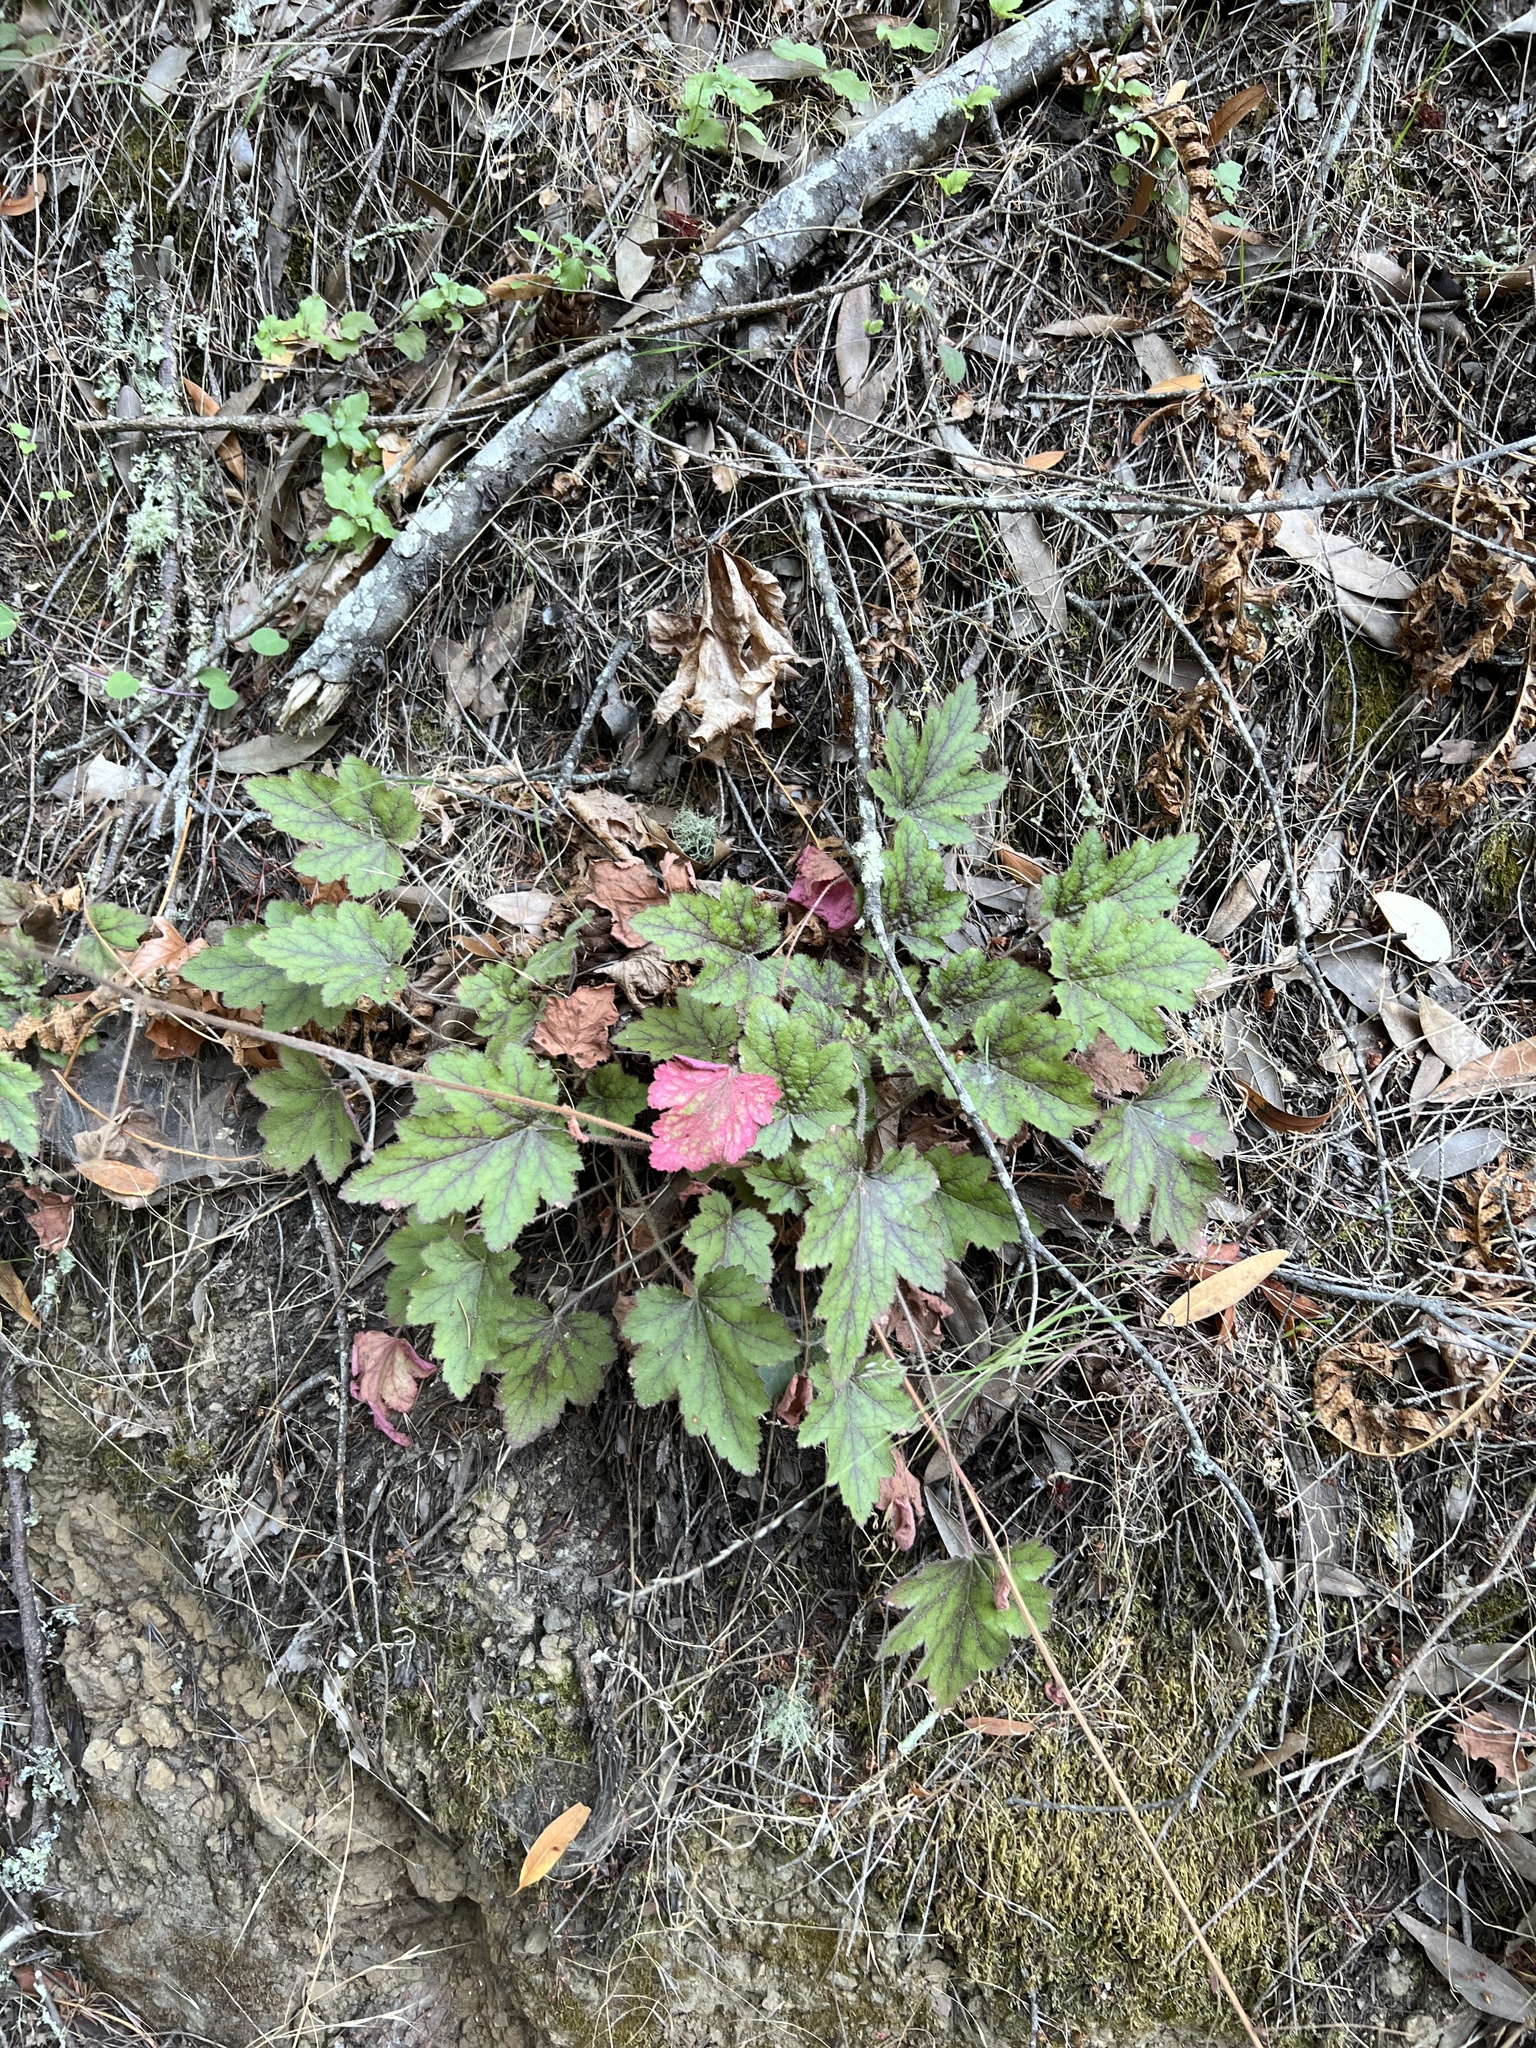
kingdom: Plantae
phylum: Tracheophyta
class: Magnoliopsida
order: Saxifragales
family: Saxifragaceae
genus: Heuchera
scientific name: Heuchera micrantha
